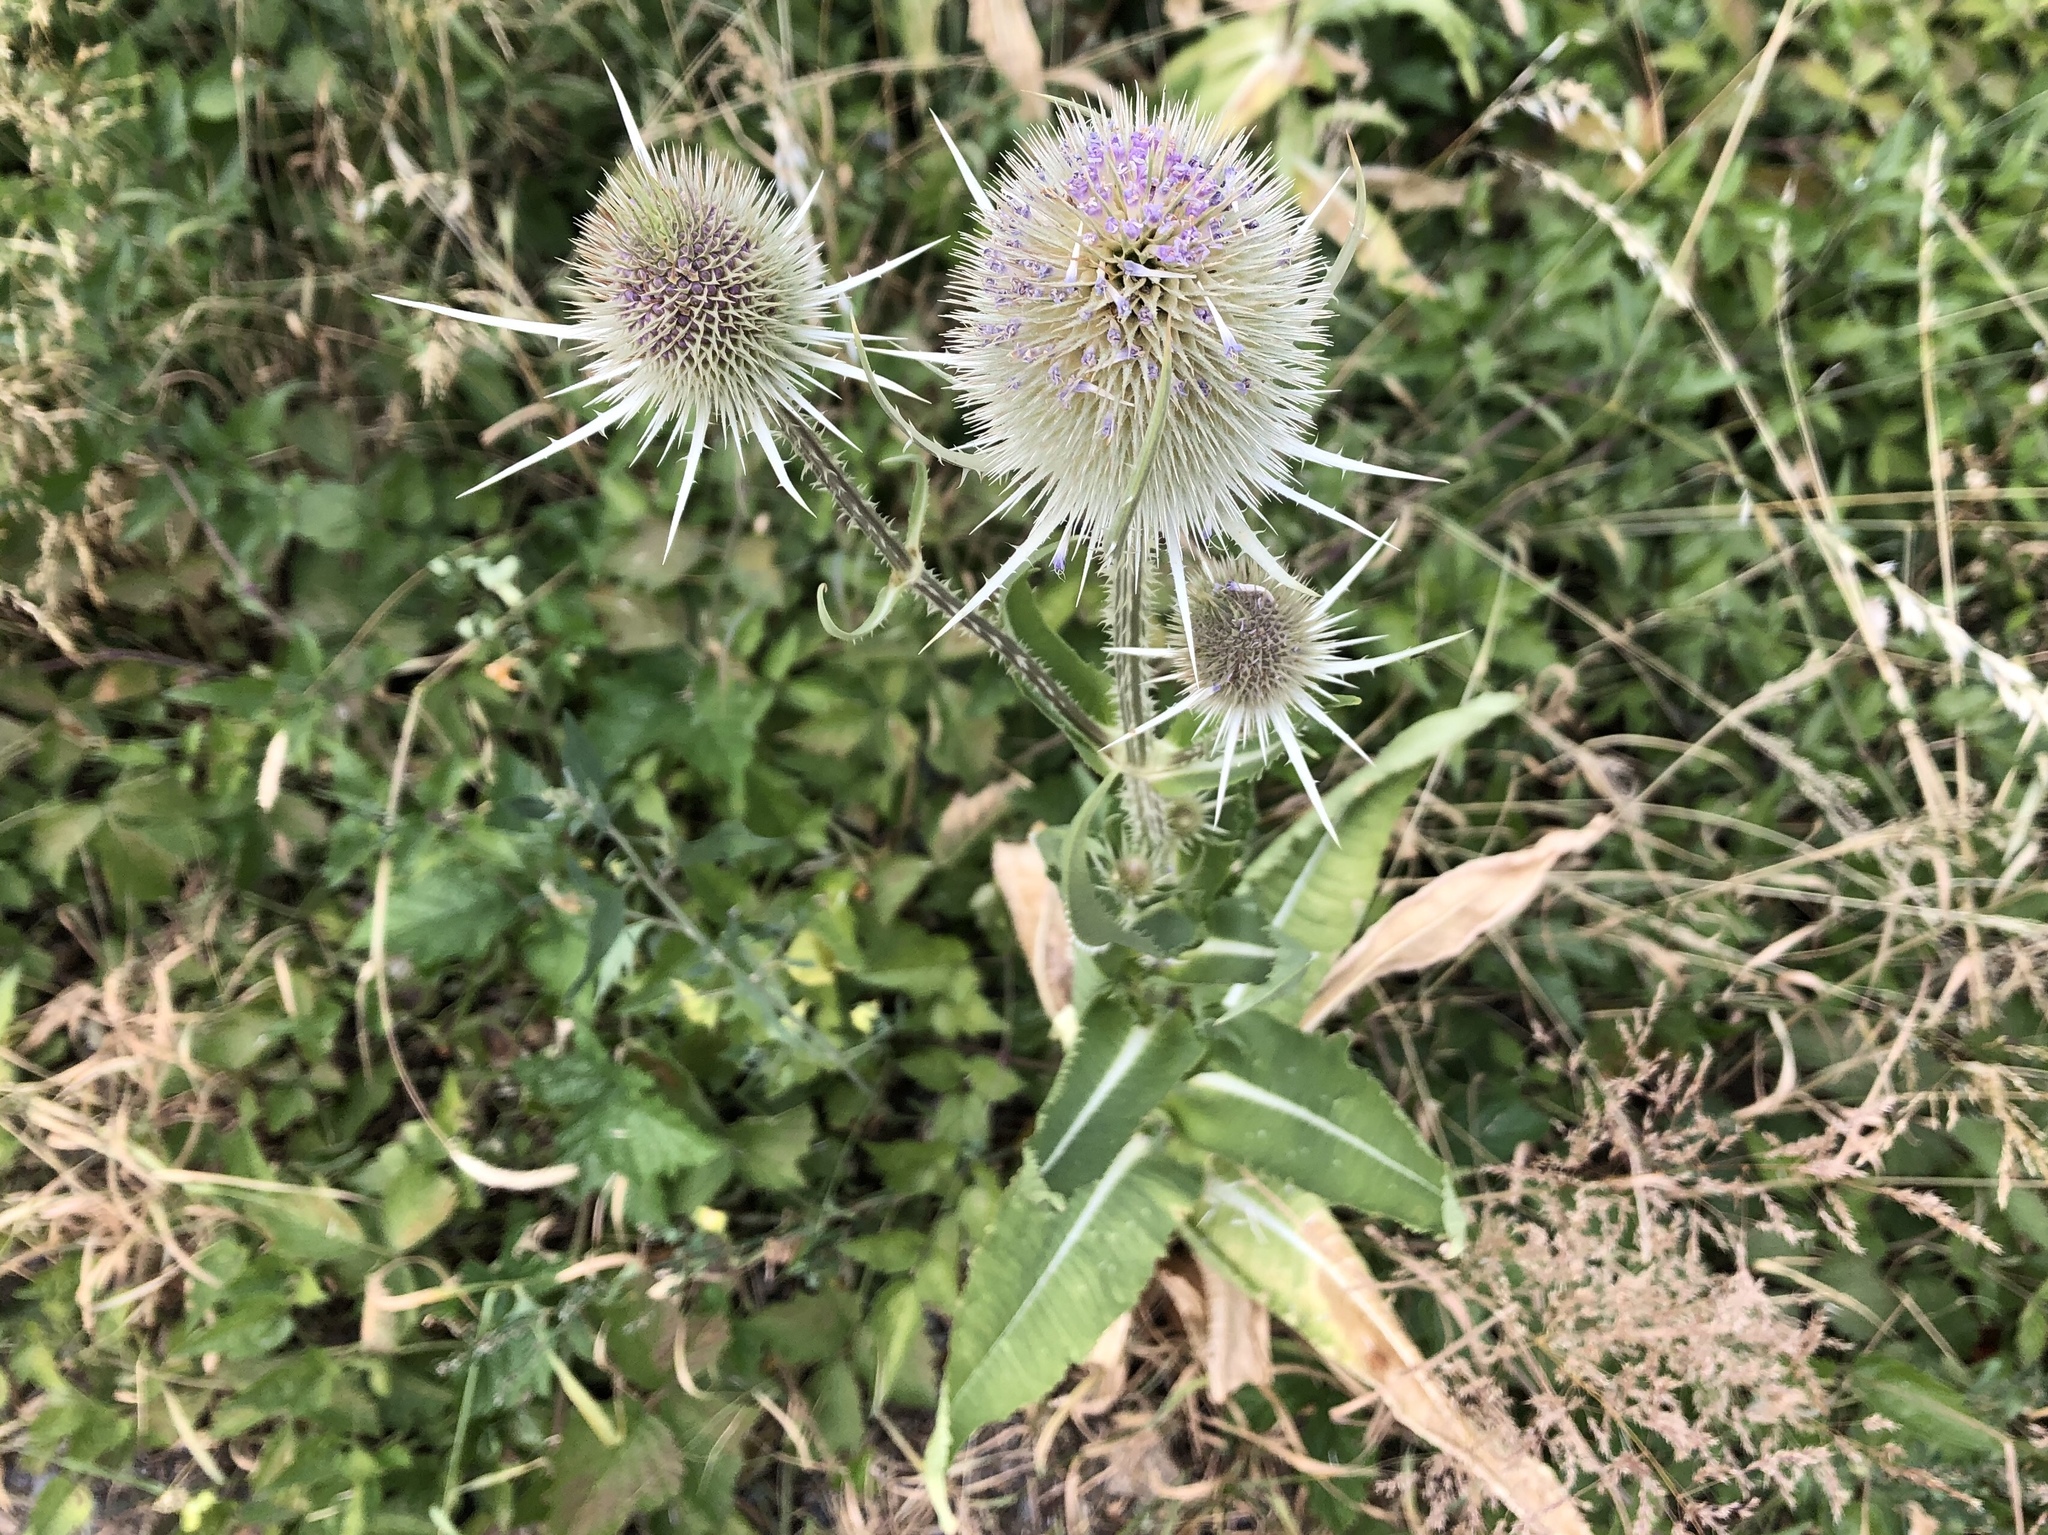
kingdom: Plantae
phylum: Tracheophyta
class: Magnoliopsida
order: Dipsacales
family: Caprifoliaceae
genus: Dipsacus
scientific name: Dipsacus fullonum
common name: Teasel
